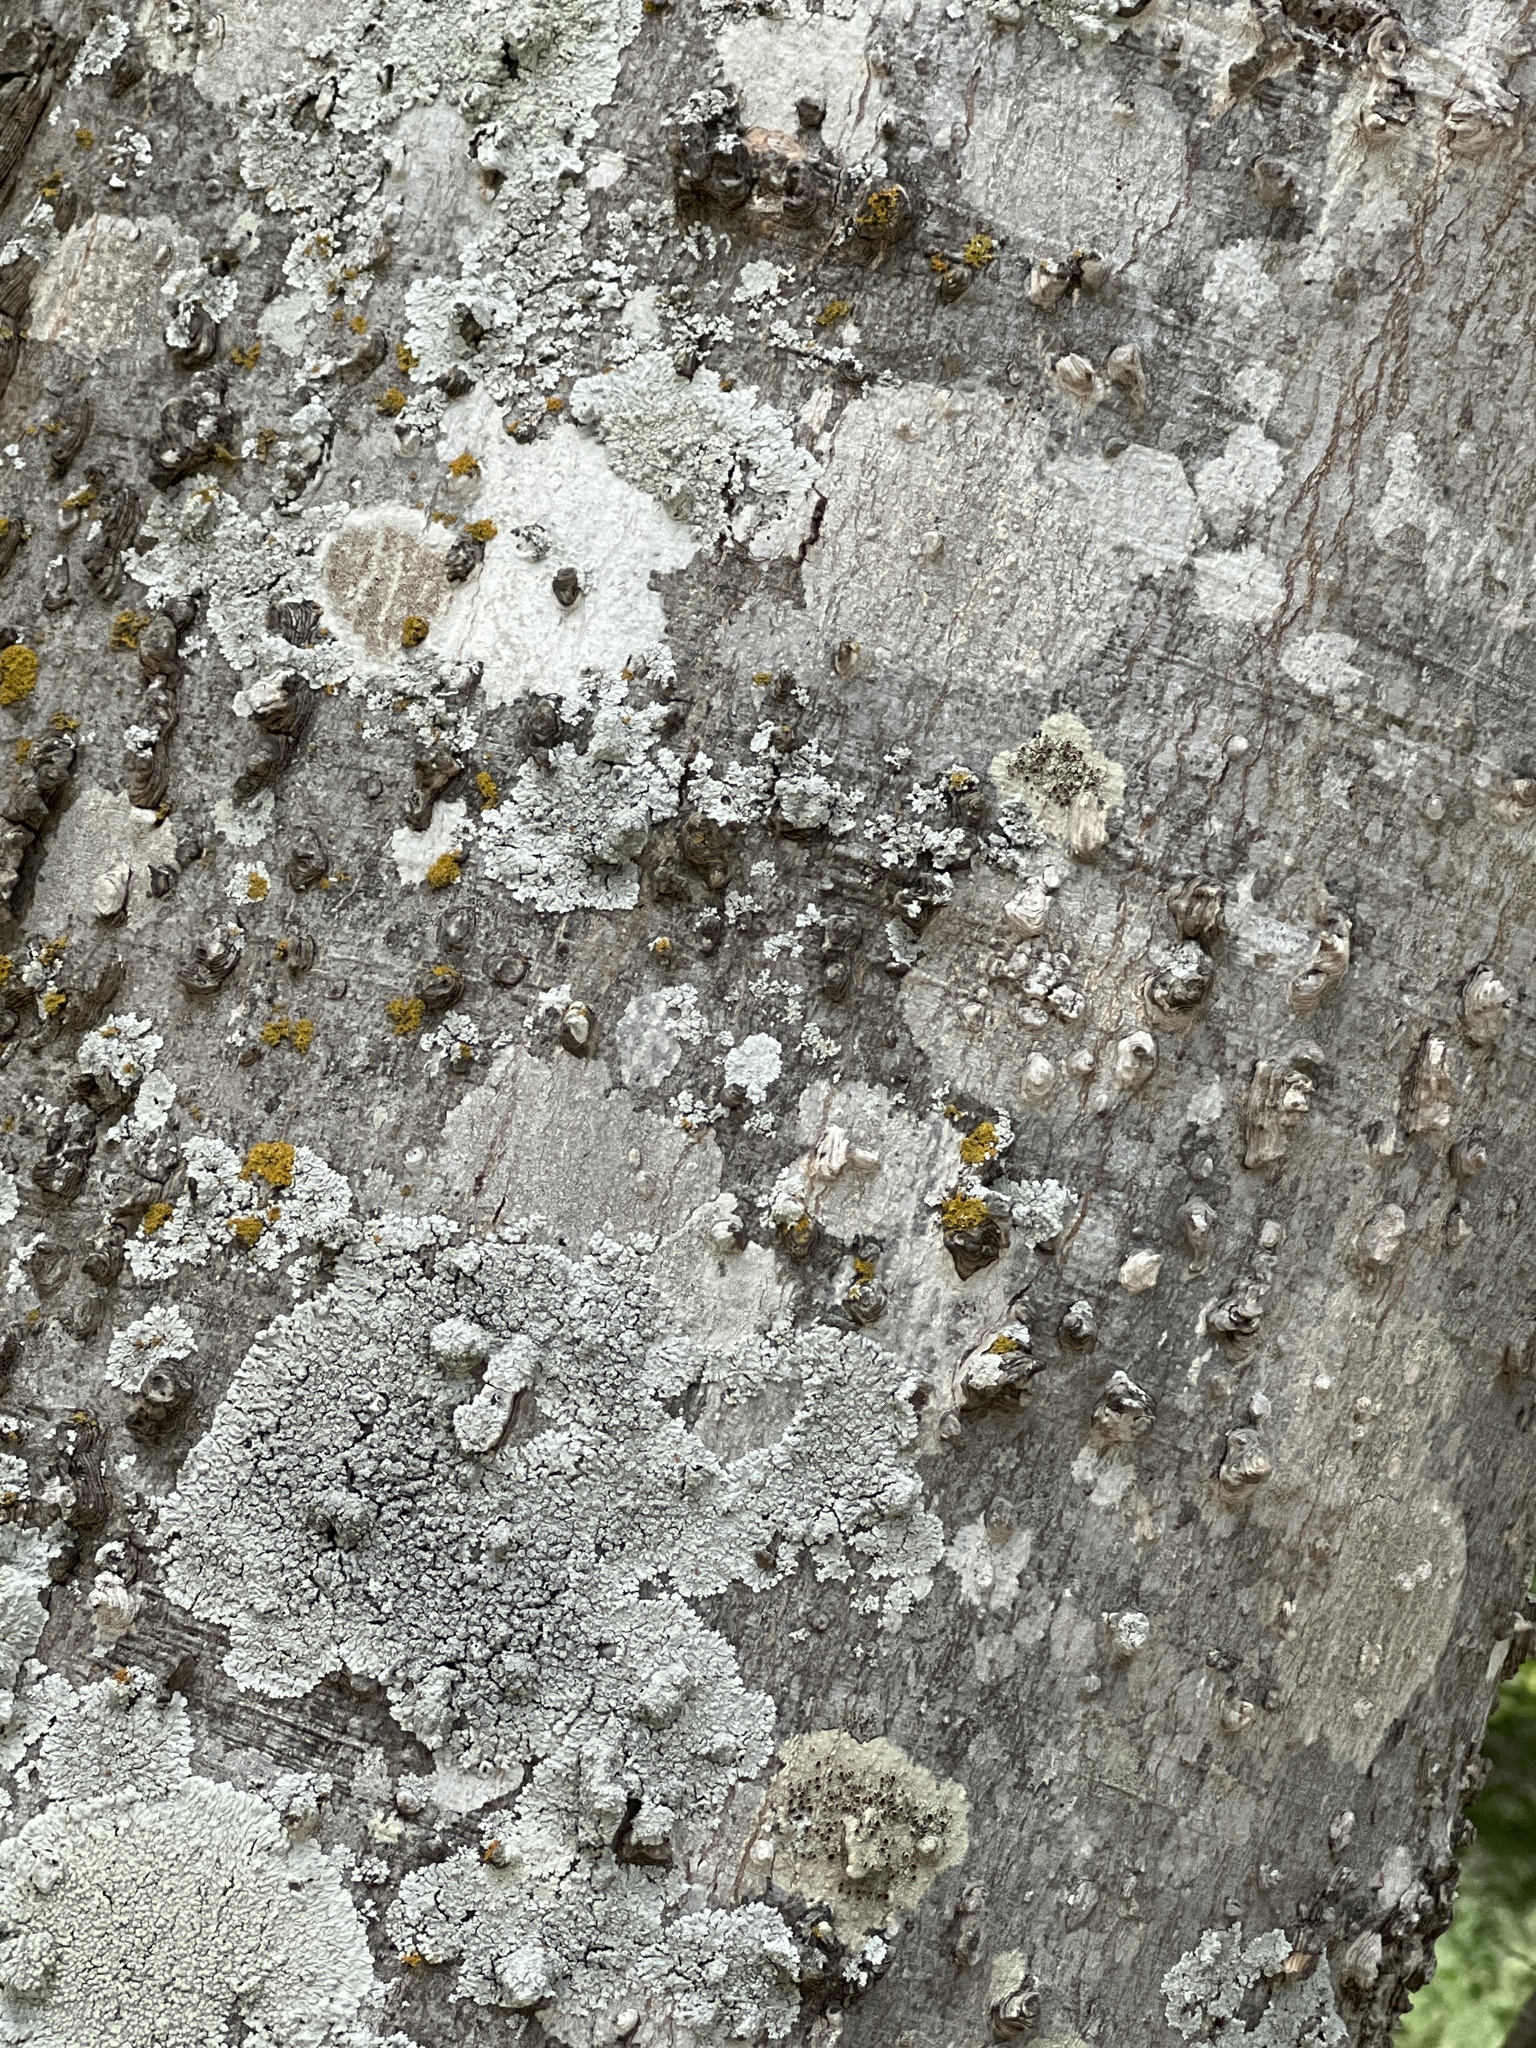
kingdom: Plantae
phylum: Tracheophyta
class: Magnoliopsida
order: Rosales
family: Cannabaceae
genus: Celtis
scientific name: Celtis laevigata
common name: Sugarberry
